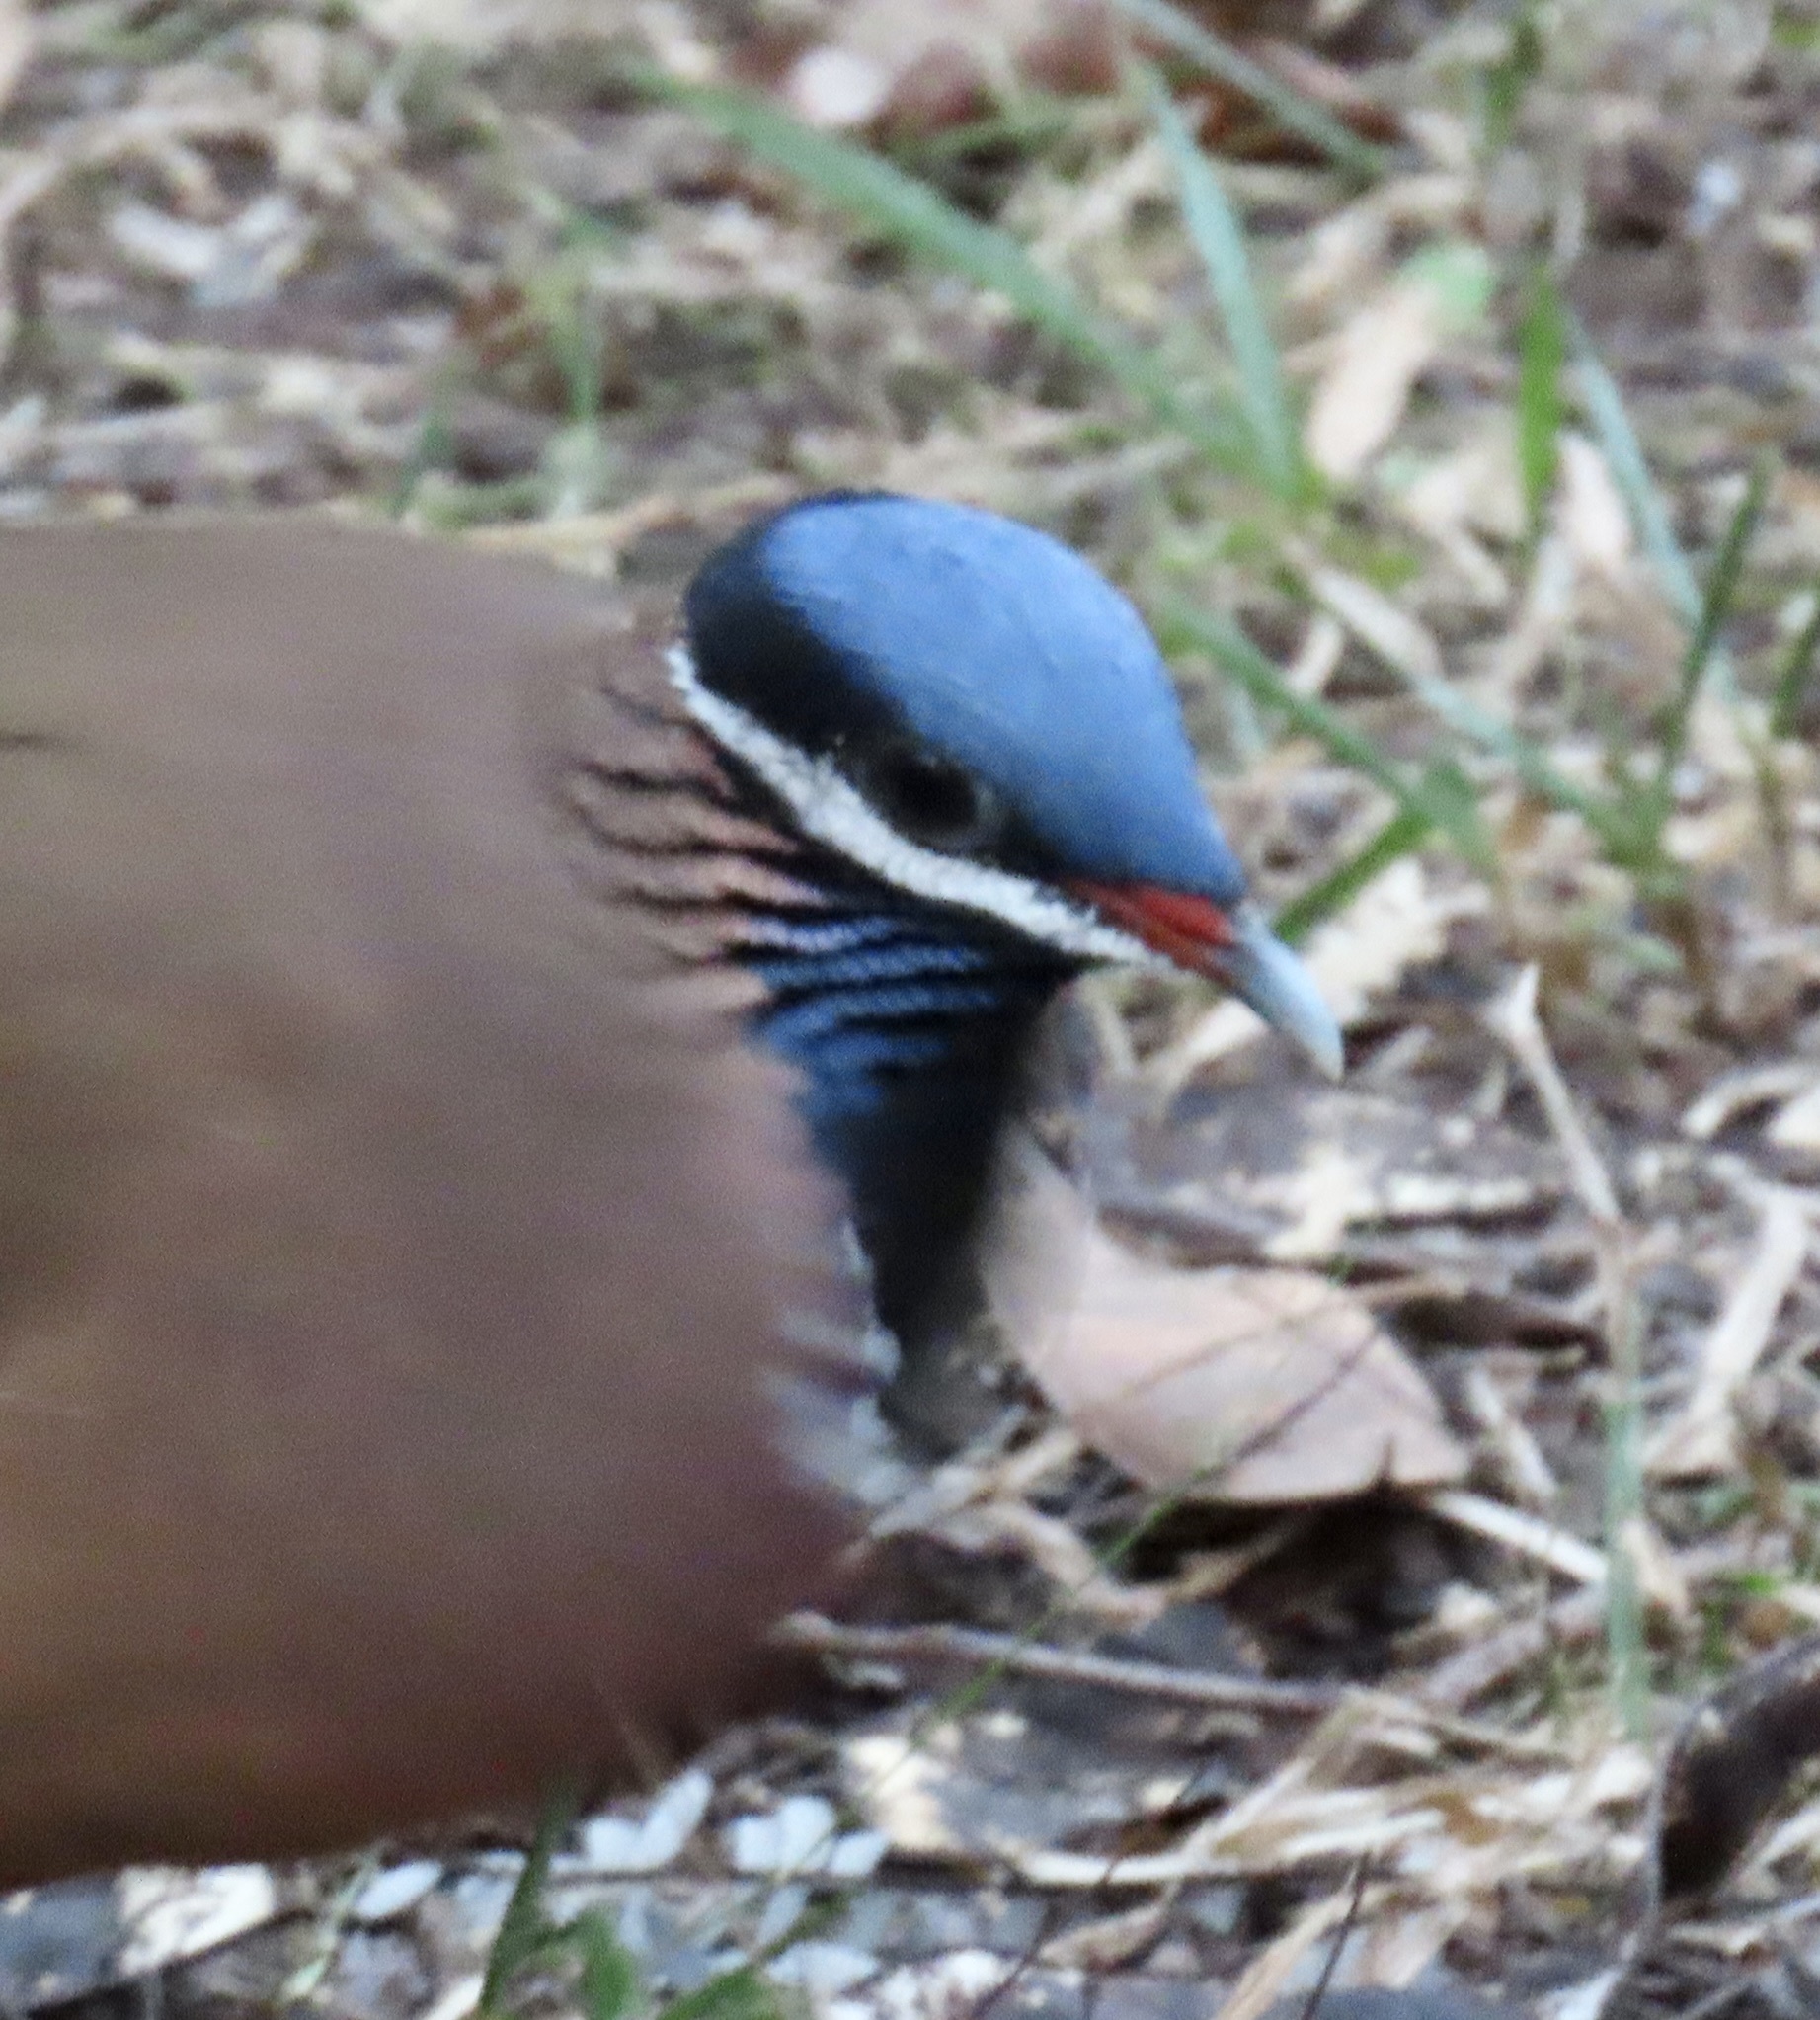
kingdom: Animalia
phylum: Chordata
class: Aves
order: Columbiformes
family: Columbidae
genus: Starnoenas
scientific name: Starnoenas cyanocephala
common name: Blue-headed quail-dove
